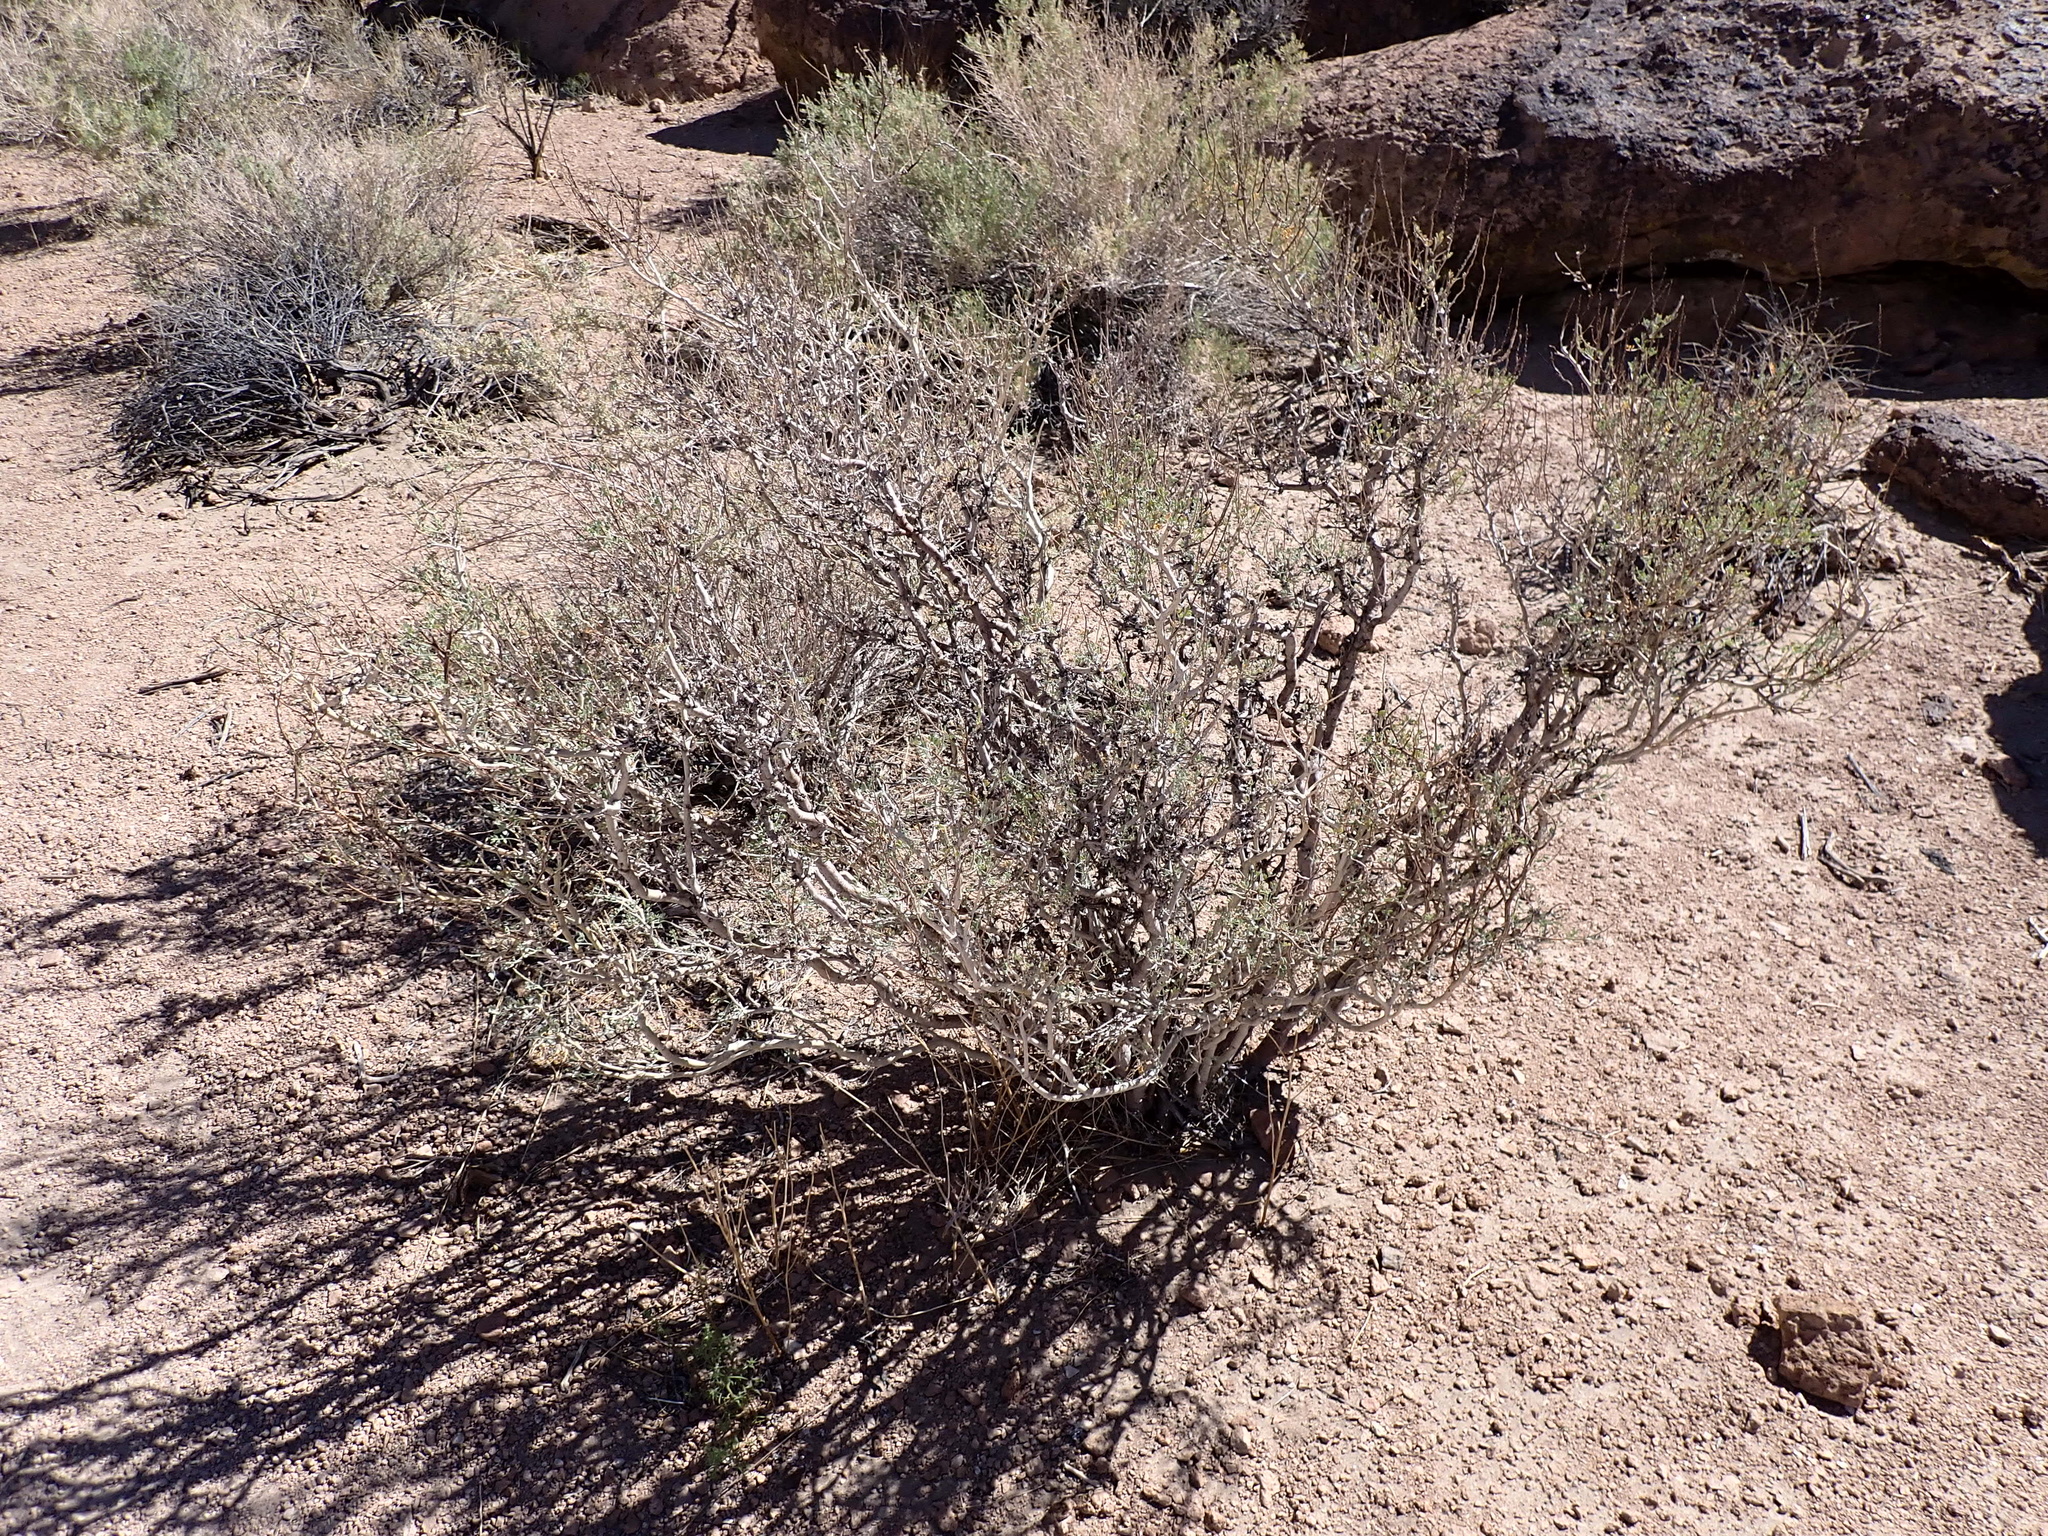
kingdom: Plantae
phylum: Tracheophyta
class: Magnoliopsida
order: Fabales
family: Fabaceae
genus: Psorothamnus
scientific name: Psorothamnus arborescens
